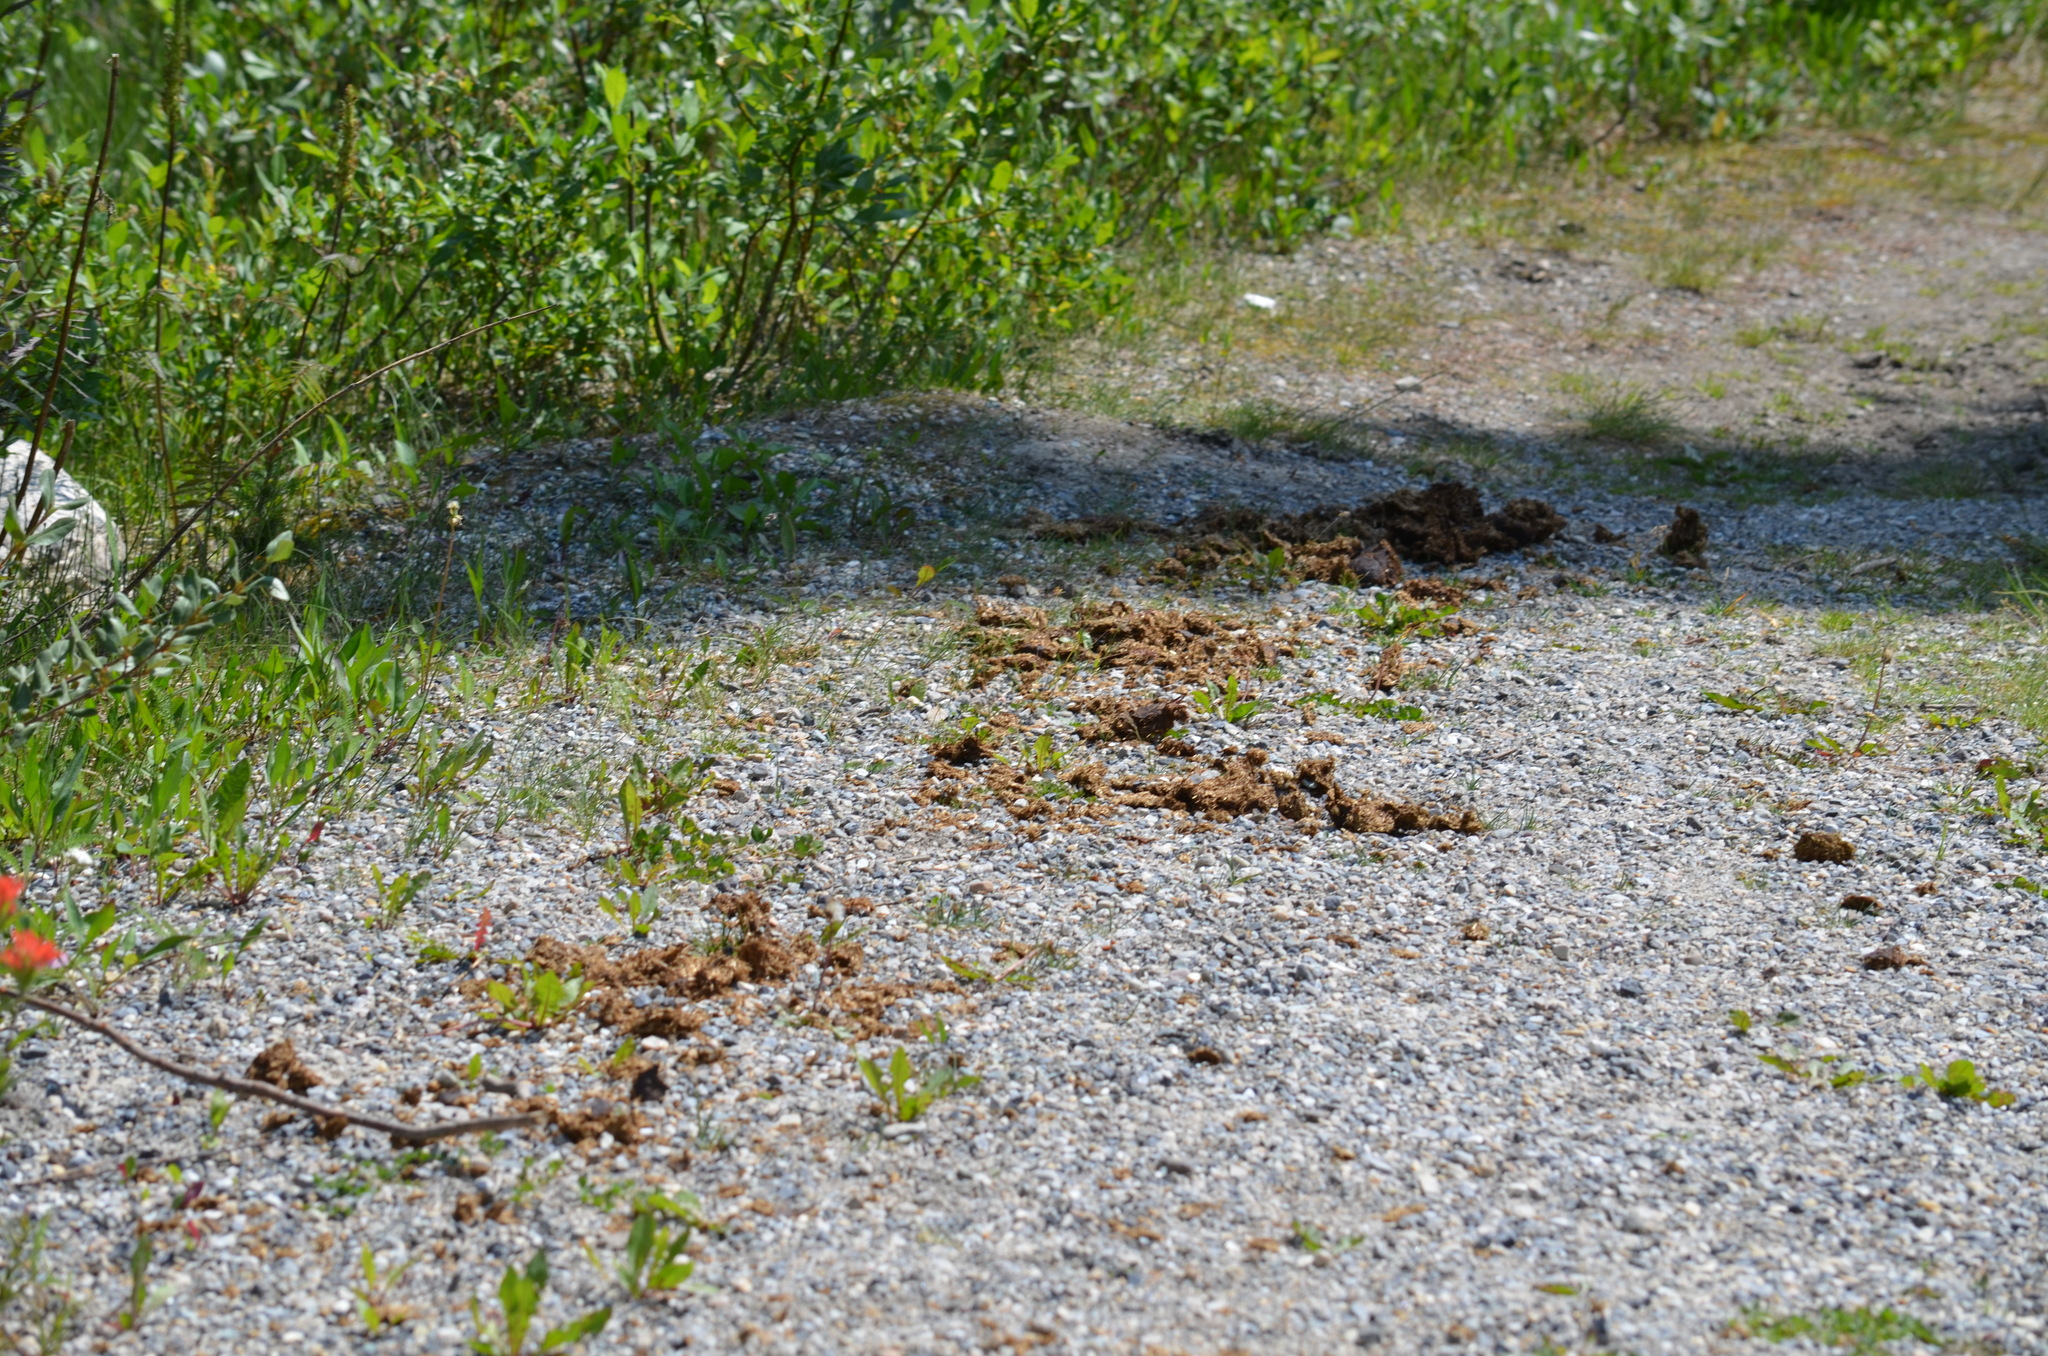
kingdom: Animalia
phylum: Chordata
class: Mammalia
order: Perissodactyla
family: Equidae
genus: Equus
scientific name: Equus caballus
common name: Horse
